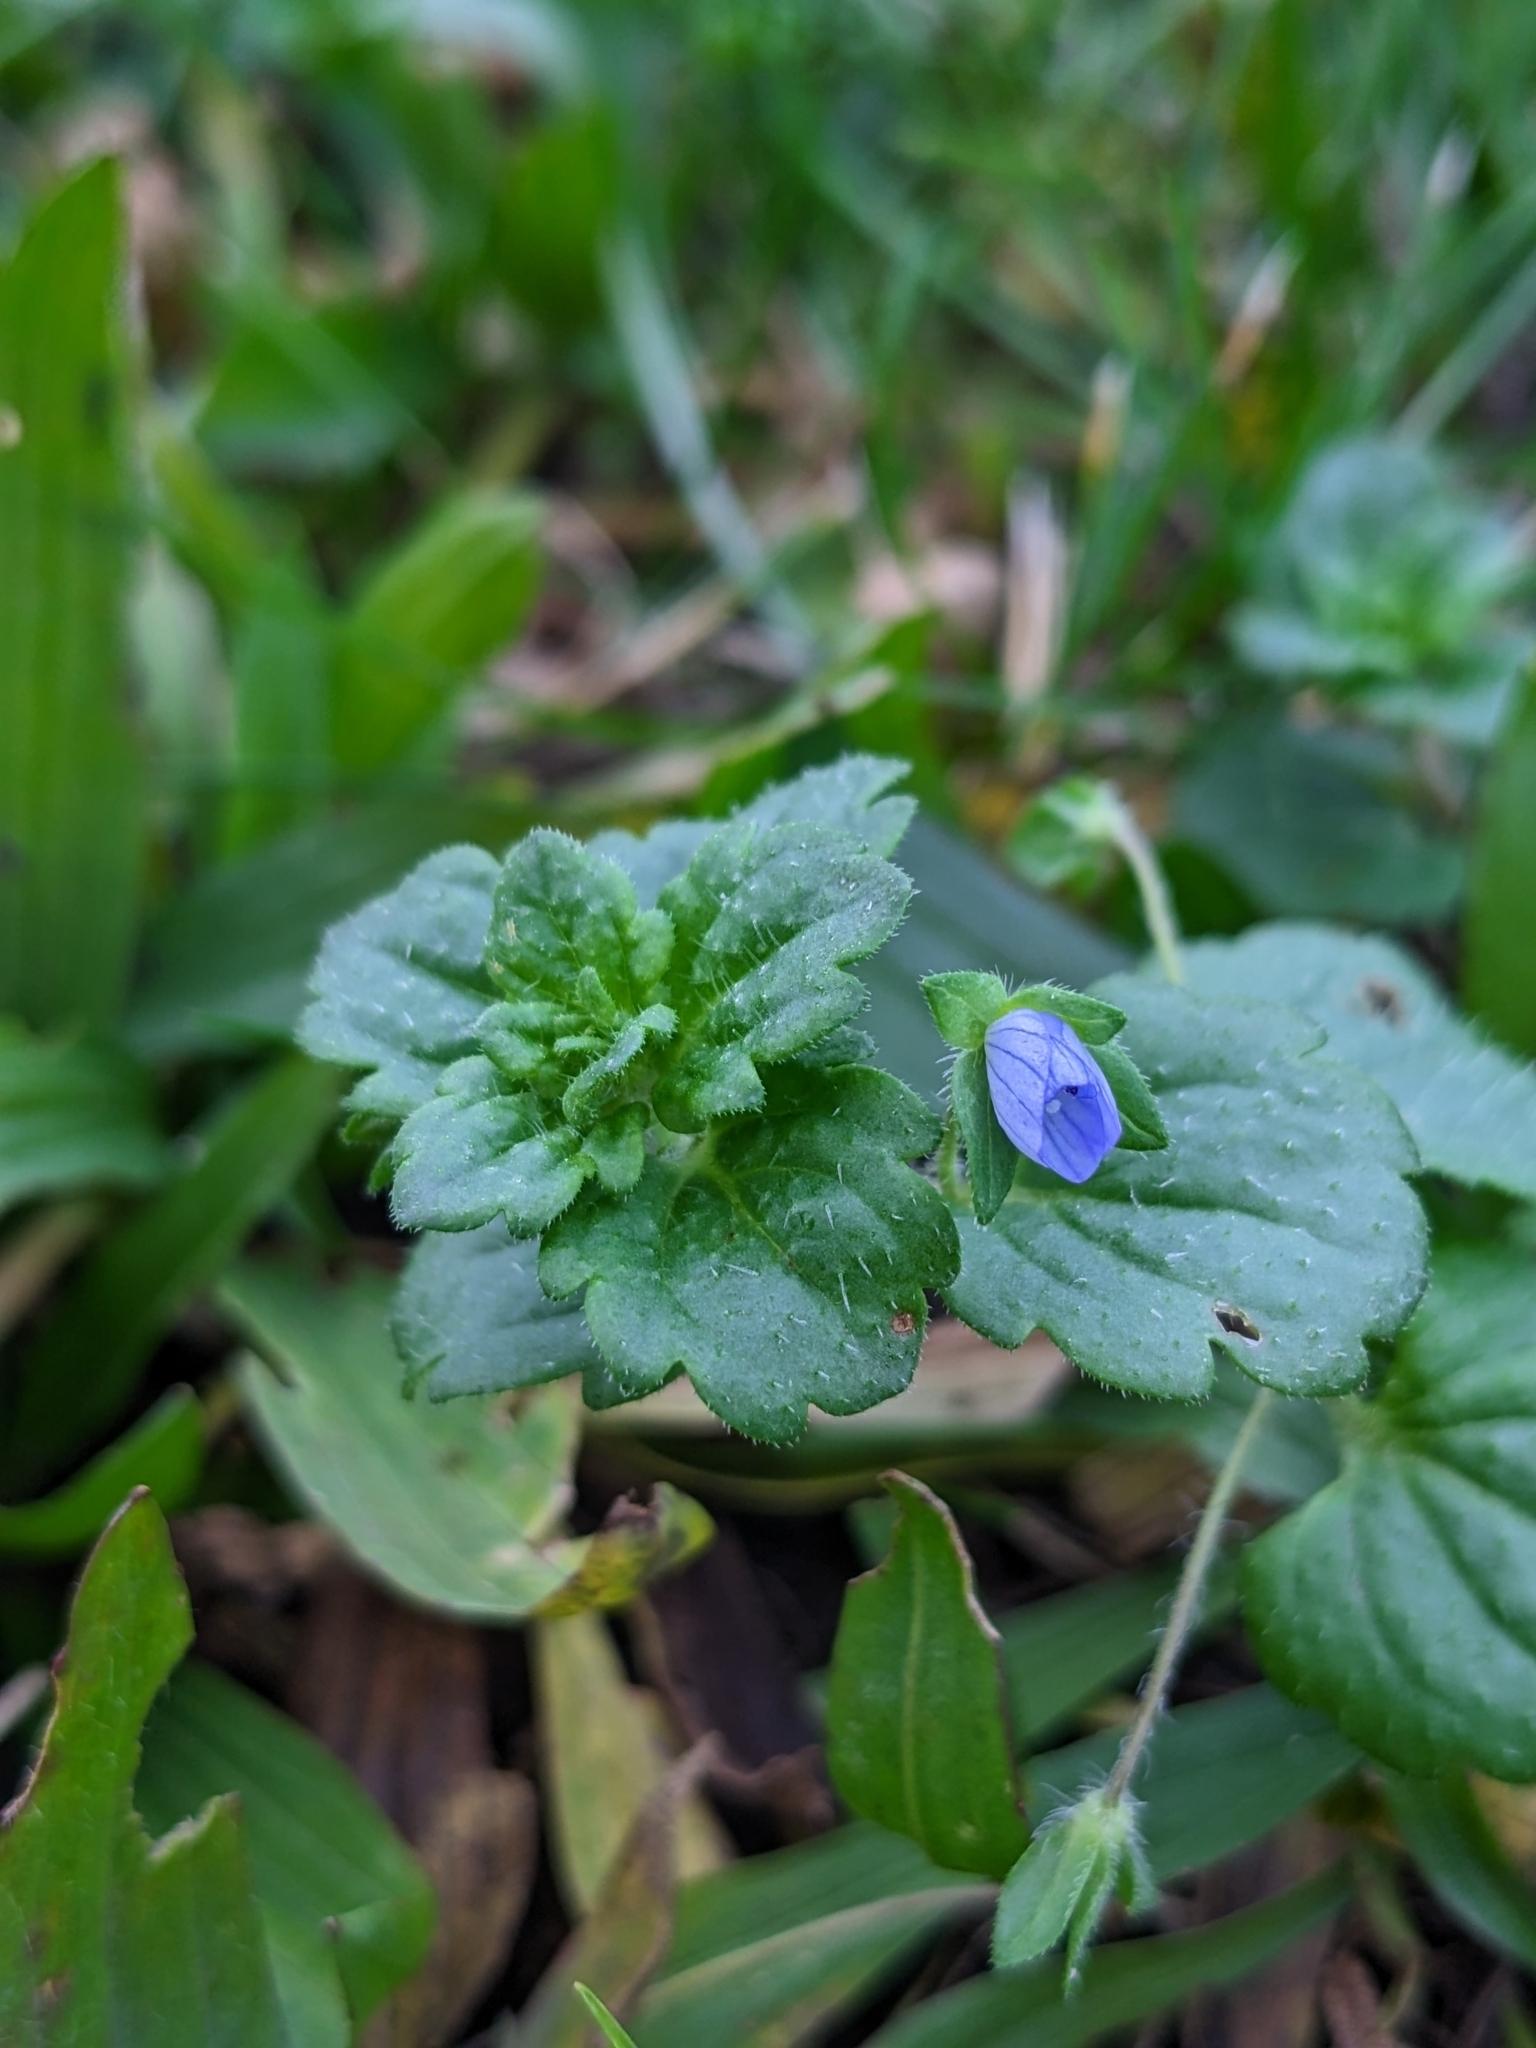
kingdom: Plantae
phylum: Tracheophyta
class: Magnoliopsida
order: Lamiales
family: Plantaginaceae
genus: Veronica
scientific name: Veronica persica
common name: Common field-speedwell
